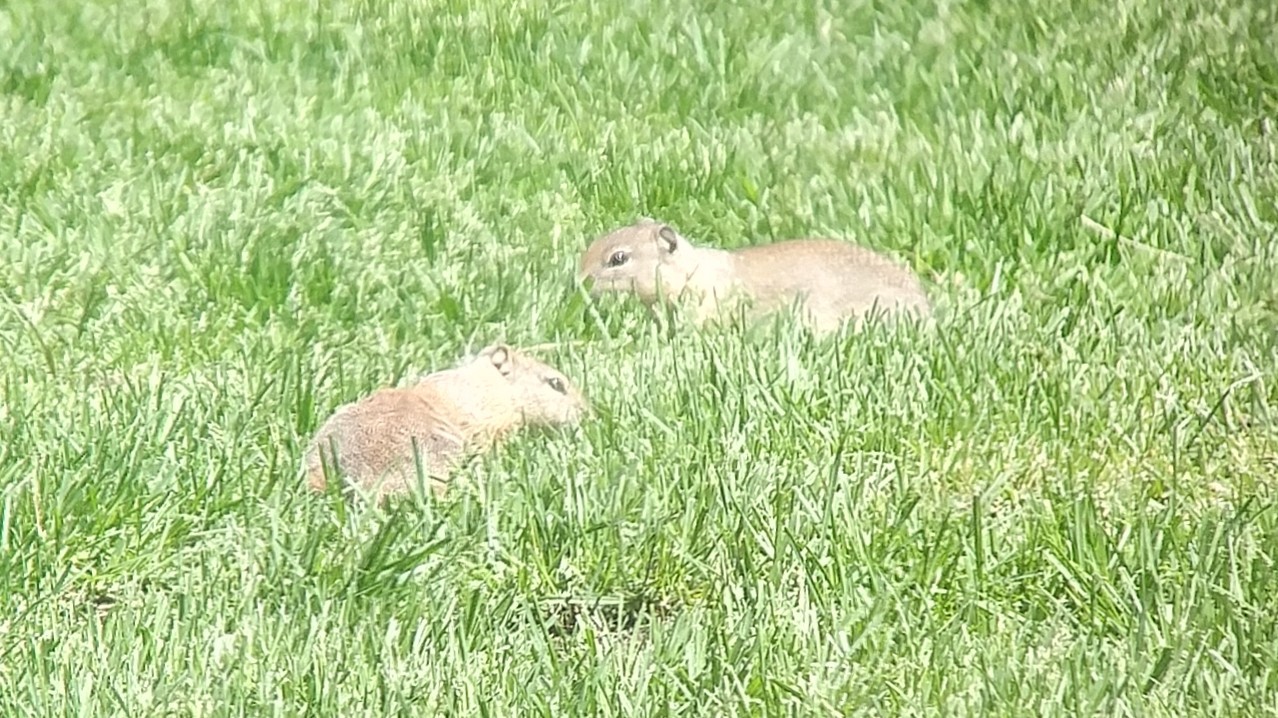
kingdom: Animalia
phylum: Chordata
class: Mammalia
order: Rodentia
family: Sciuridae
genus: Urocitellus
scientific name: Urocitellus beldingi
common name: Belding's ground squirrel
